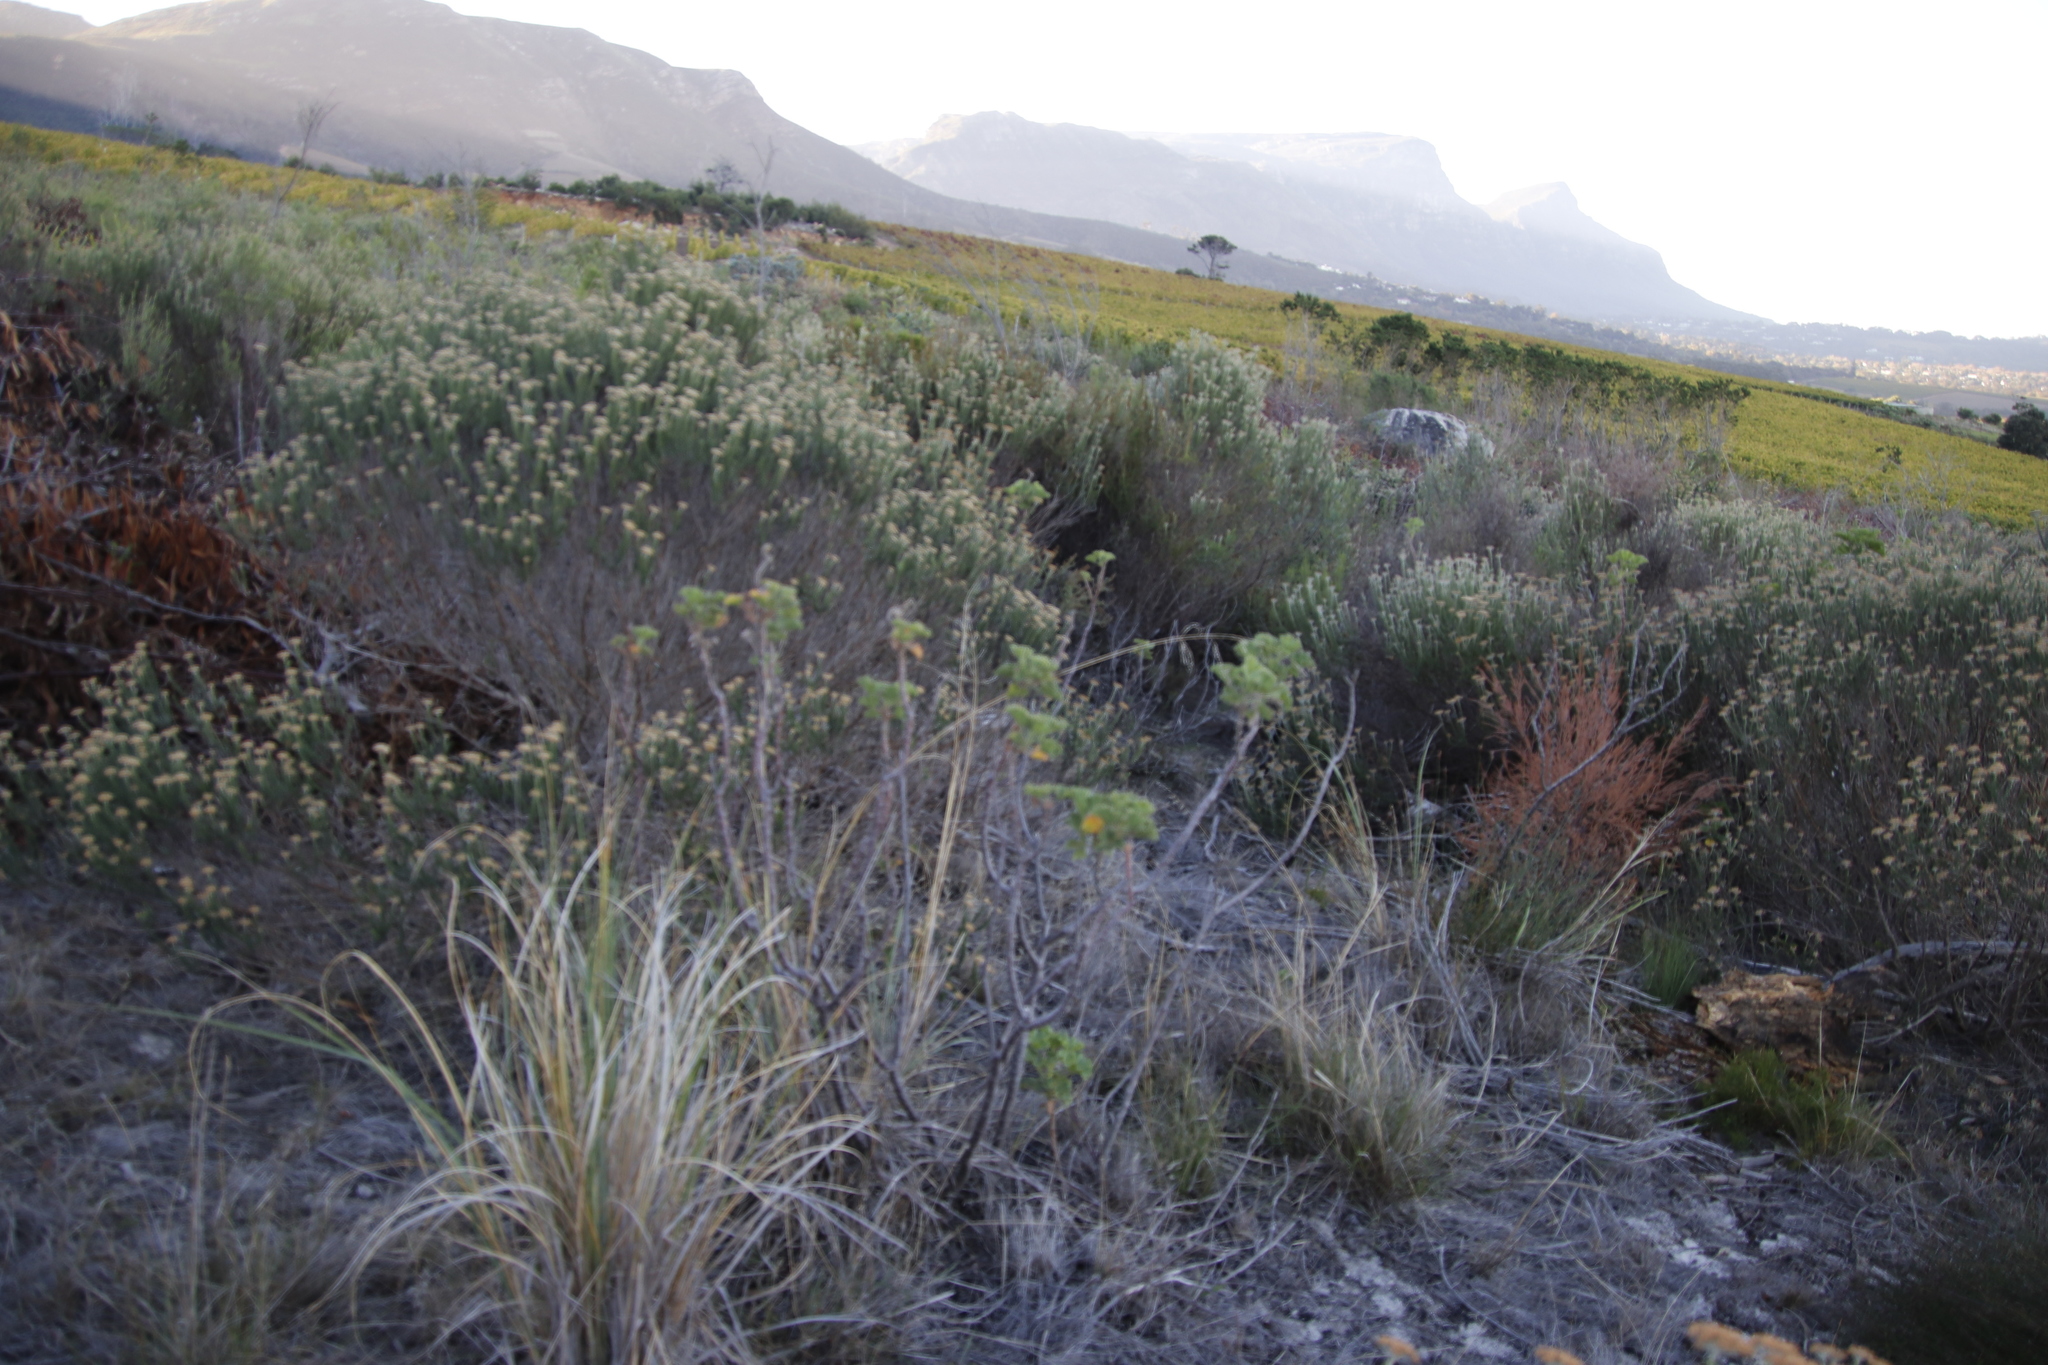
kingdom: Plantae
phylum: Tracheophyta
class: Magnoliopsida
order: Geraniales
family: Geraniaceae
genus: Pelargonium
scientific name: Pelargonium cucullatum
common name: Tree pelargonium
